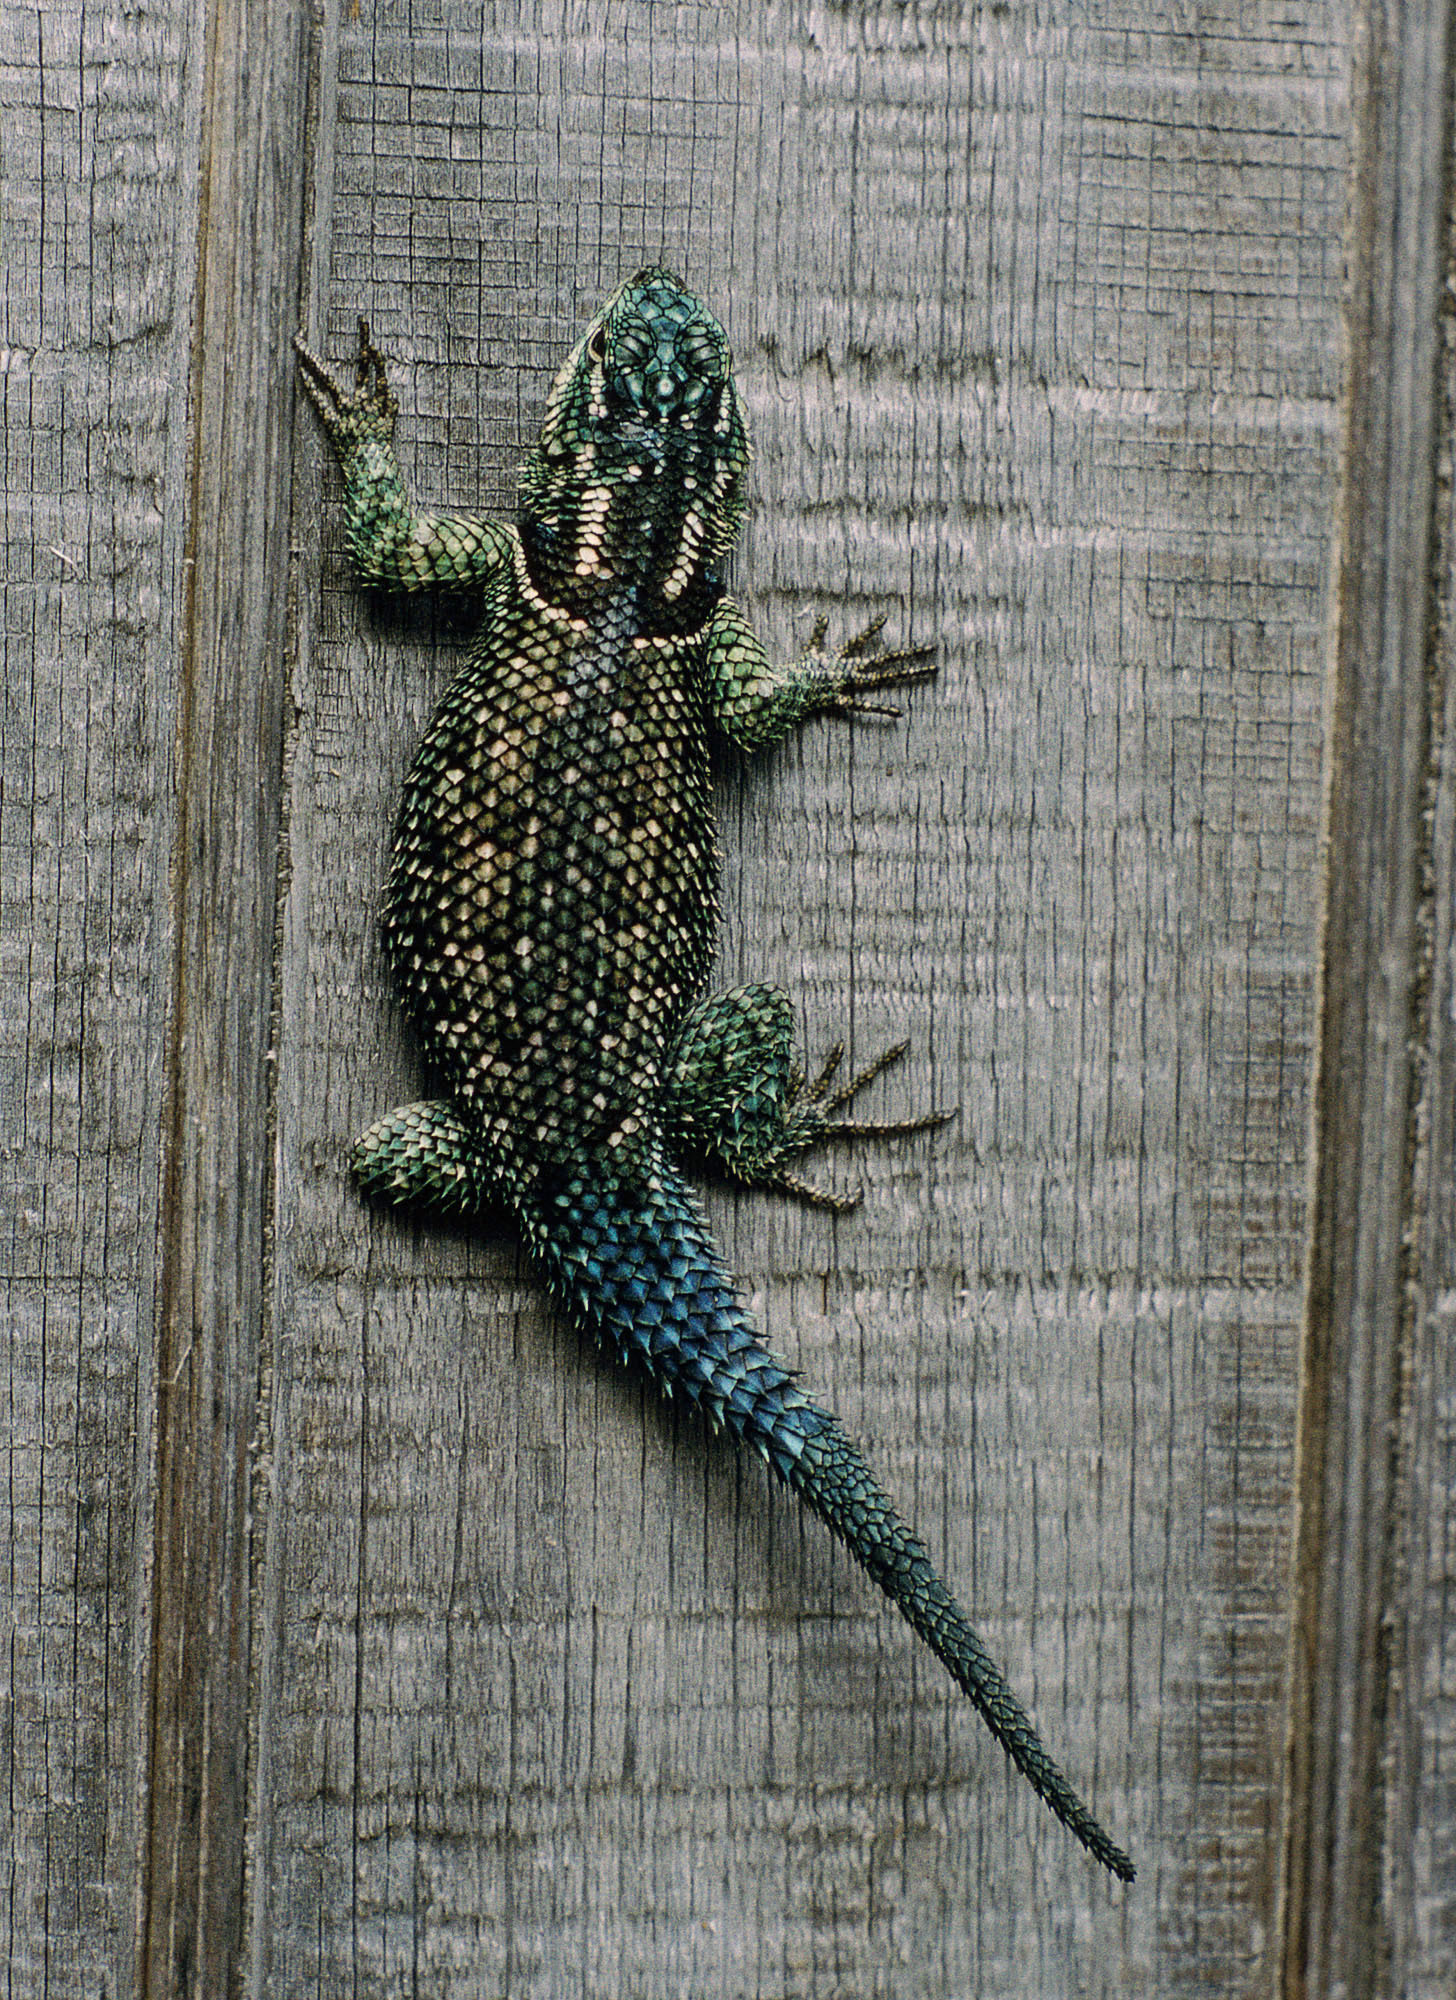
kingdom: Animalia
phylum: Chordata
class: Squamata
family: Phrynosomatidae
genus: Sceloporus
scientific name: Sceloporus jarrovii
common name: Yarrow's spiny lizard
